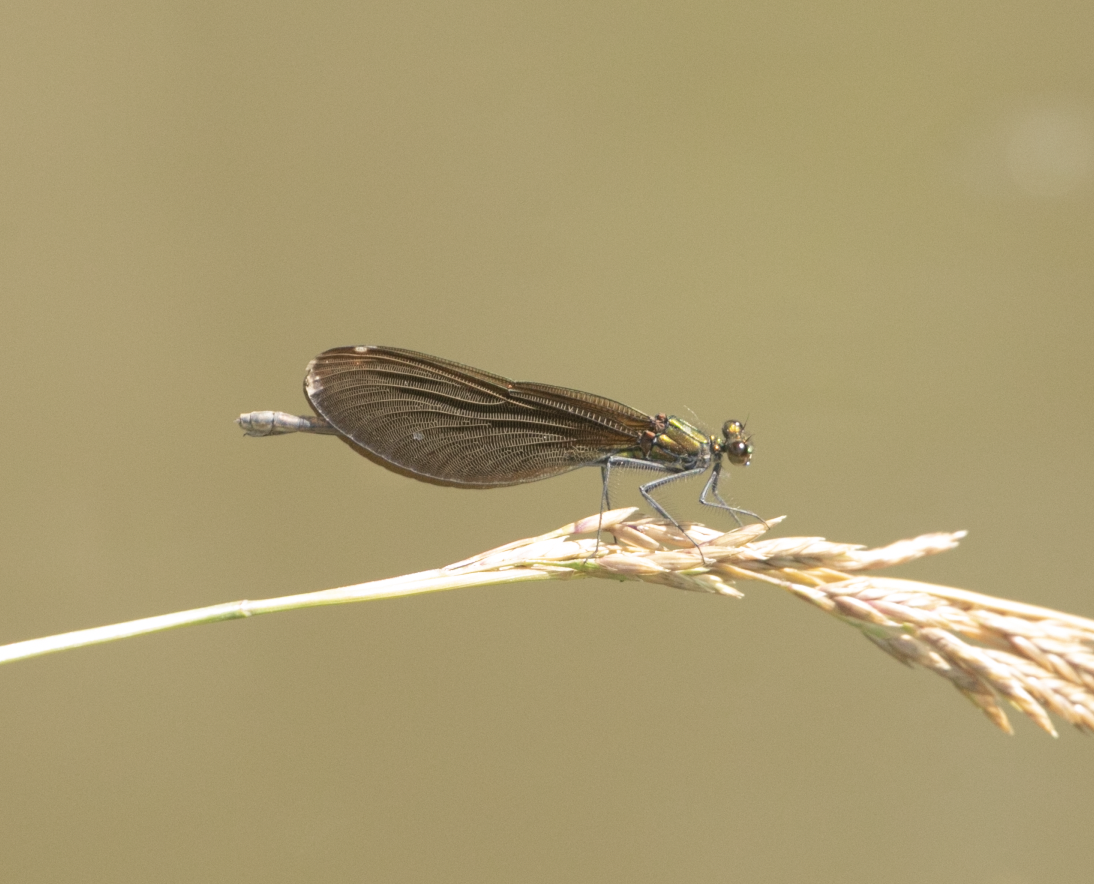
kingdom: Animalia
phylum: Arthropoda
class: Insecta
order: Odonata
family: Calopterygidae
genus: Calopteryx
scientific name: Calopteryx virgo
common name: Beautiful demoiselle
